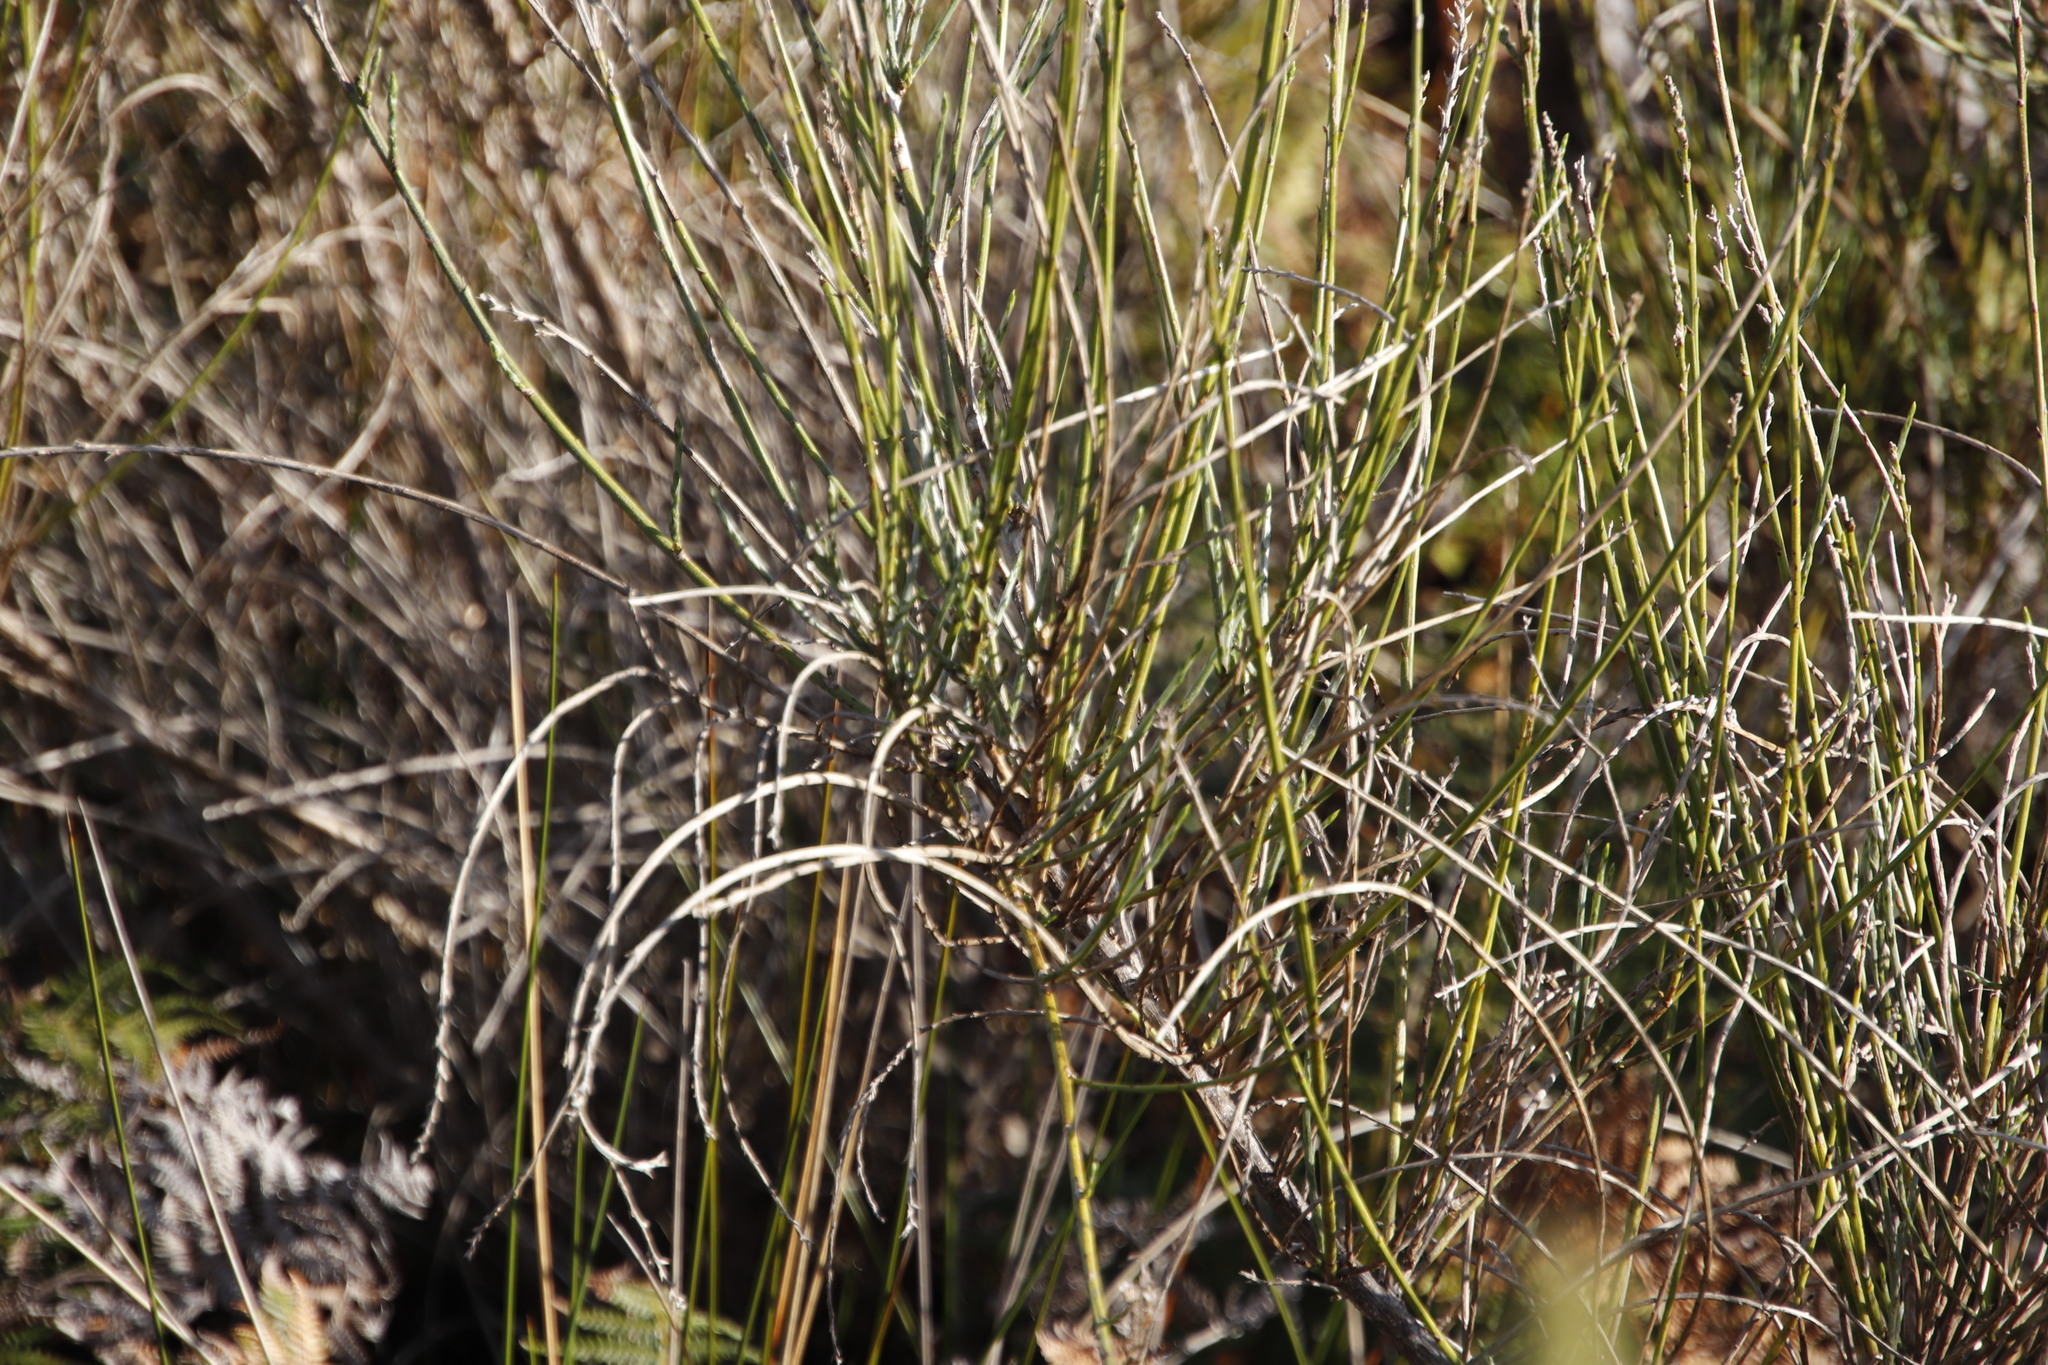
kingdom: Plantae
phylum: Tracheophyta
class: Magnoliopsida
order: Fabales
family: Fabaceae
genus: Psoralea
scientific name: Psoralea aphylla
